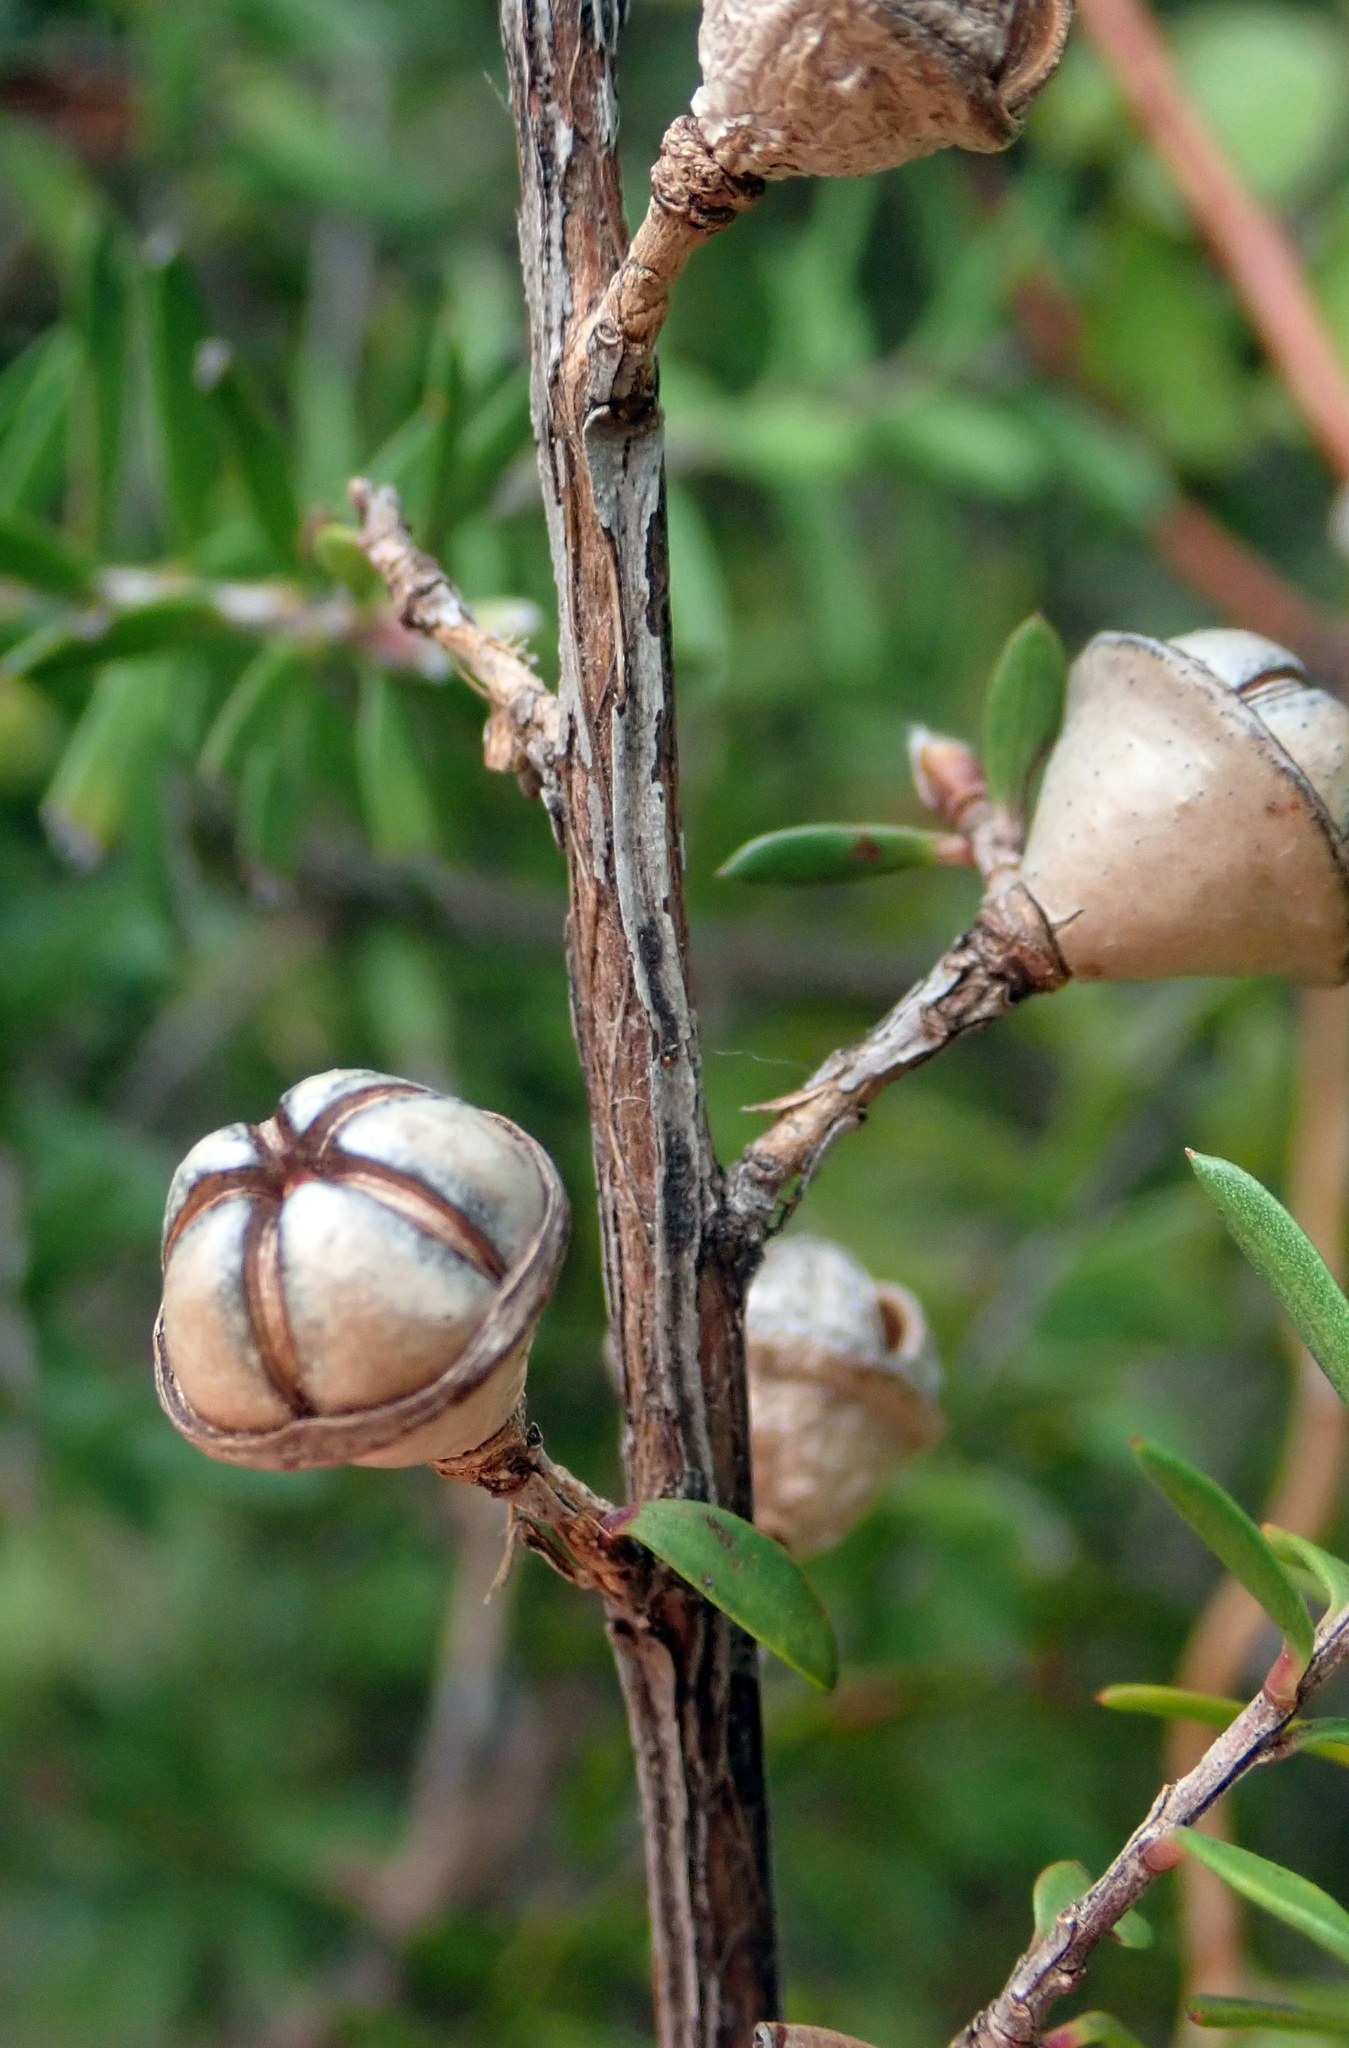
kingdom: Plantae
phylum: Tracheophyta
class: Magnoliopsida
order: Myrtales
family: Myrtaceae
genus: Leptospermum
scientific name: Leptospermum scoparium
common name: Broom tea-tree
